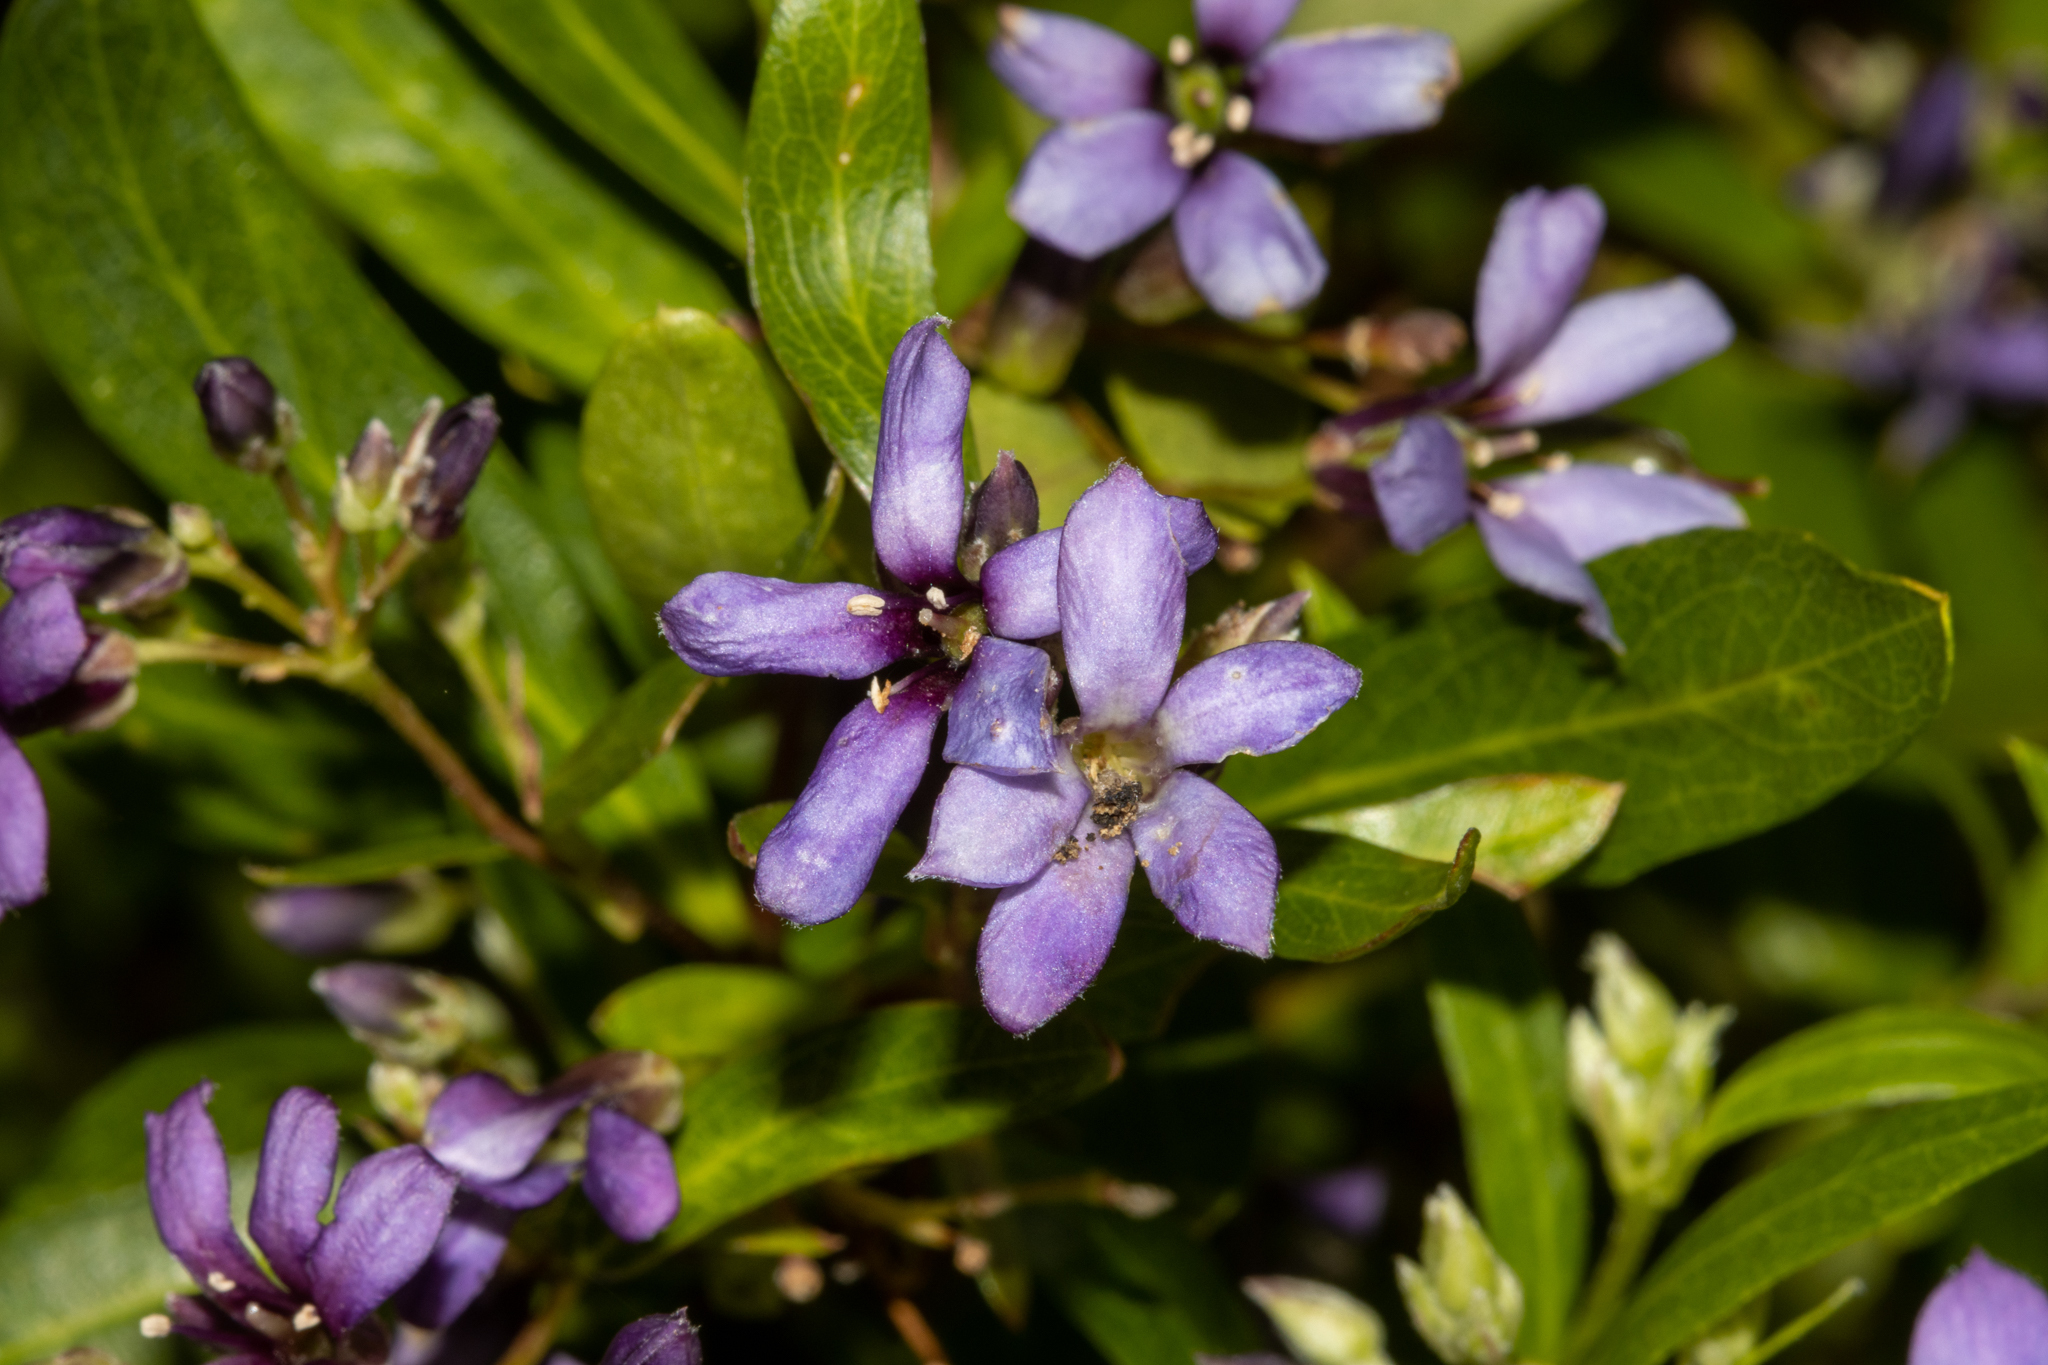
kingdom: Plantae
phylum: Tracheophyta
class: Magnoliopsida
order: Apiales
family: Pittosporaceae
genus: Billardiera
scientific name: Billardiera cymosa
